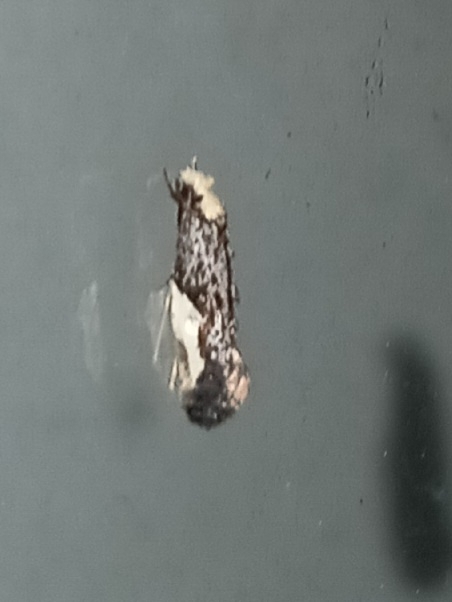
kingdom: Animalia
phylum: Arthropoda
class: Insecta
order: Lepidoptera
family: Tineidae
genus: Monopis
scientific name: Monopis longella
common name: Pavlovski's monopis moth
